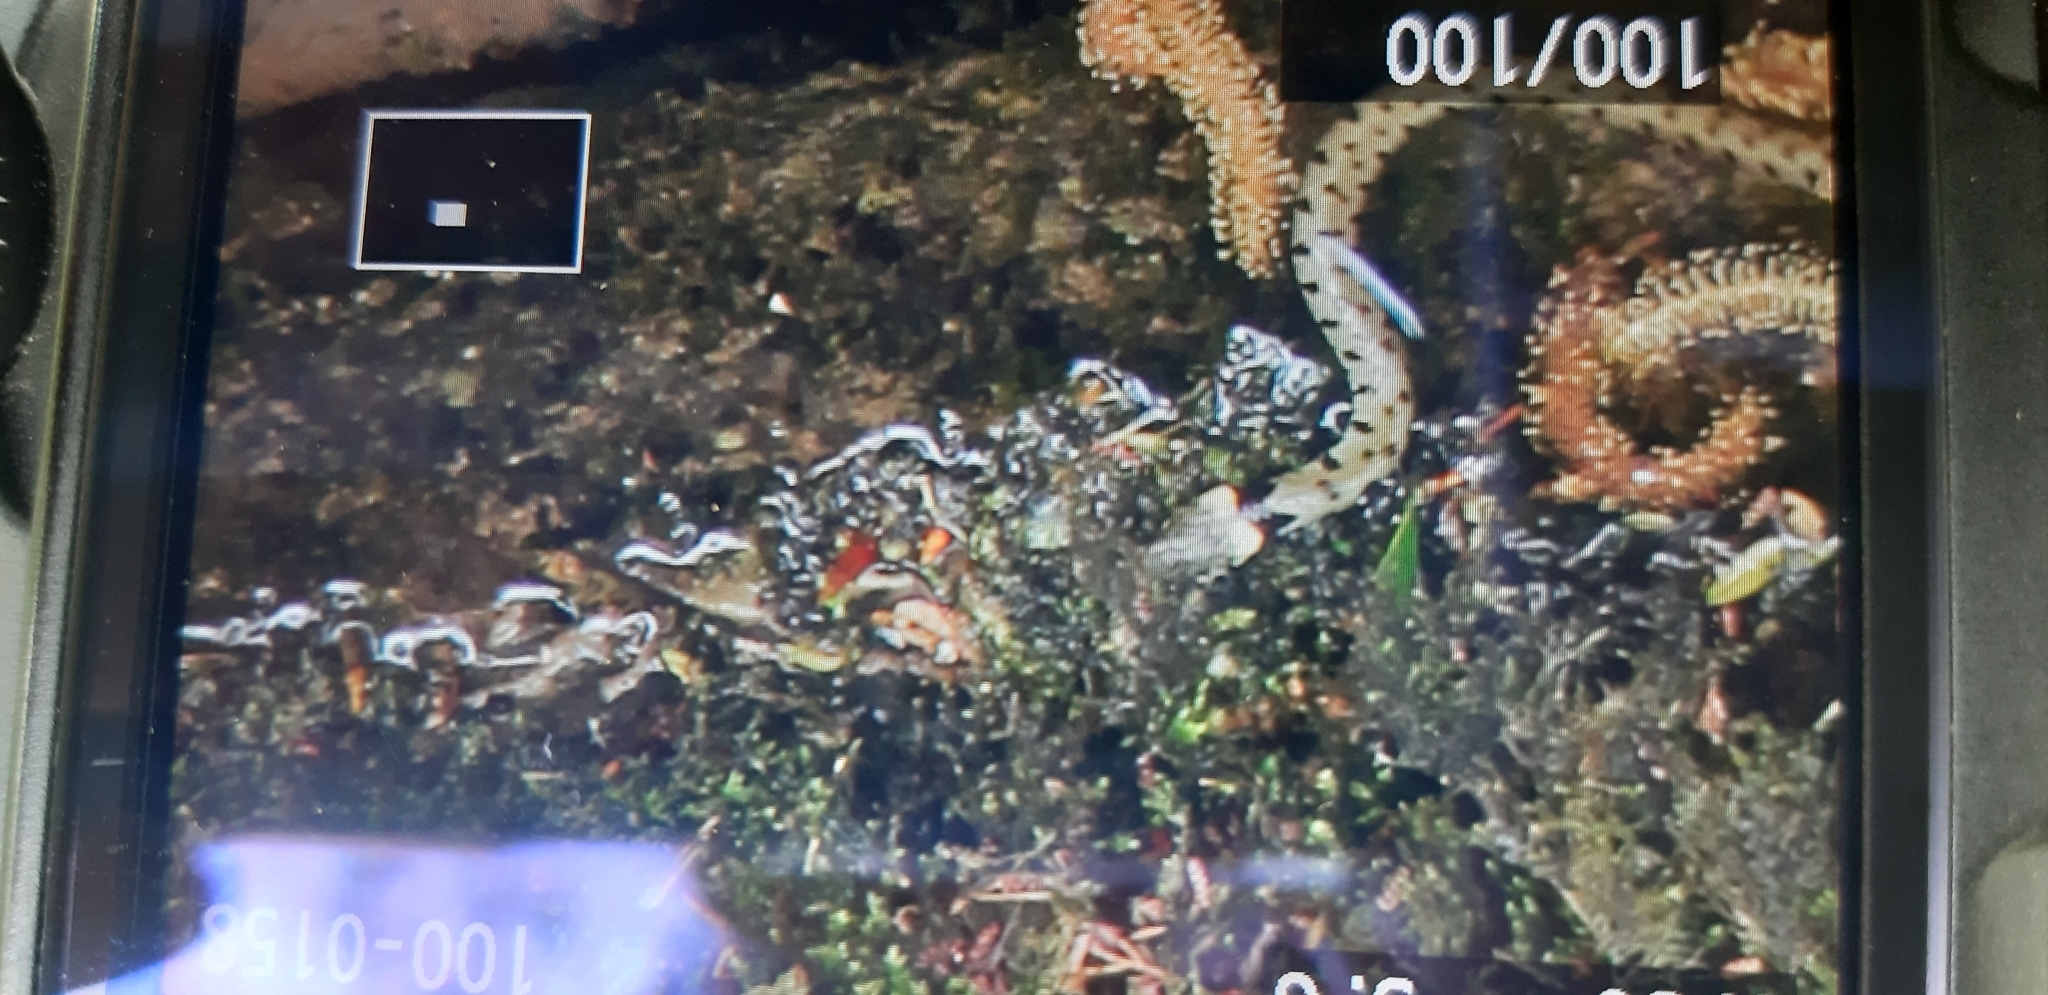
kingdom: Animalia
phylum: Chordata
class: Squamata
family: Colubridae
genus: Natrix
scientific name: Natrix helvetica
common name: Banded grass snake
